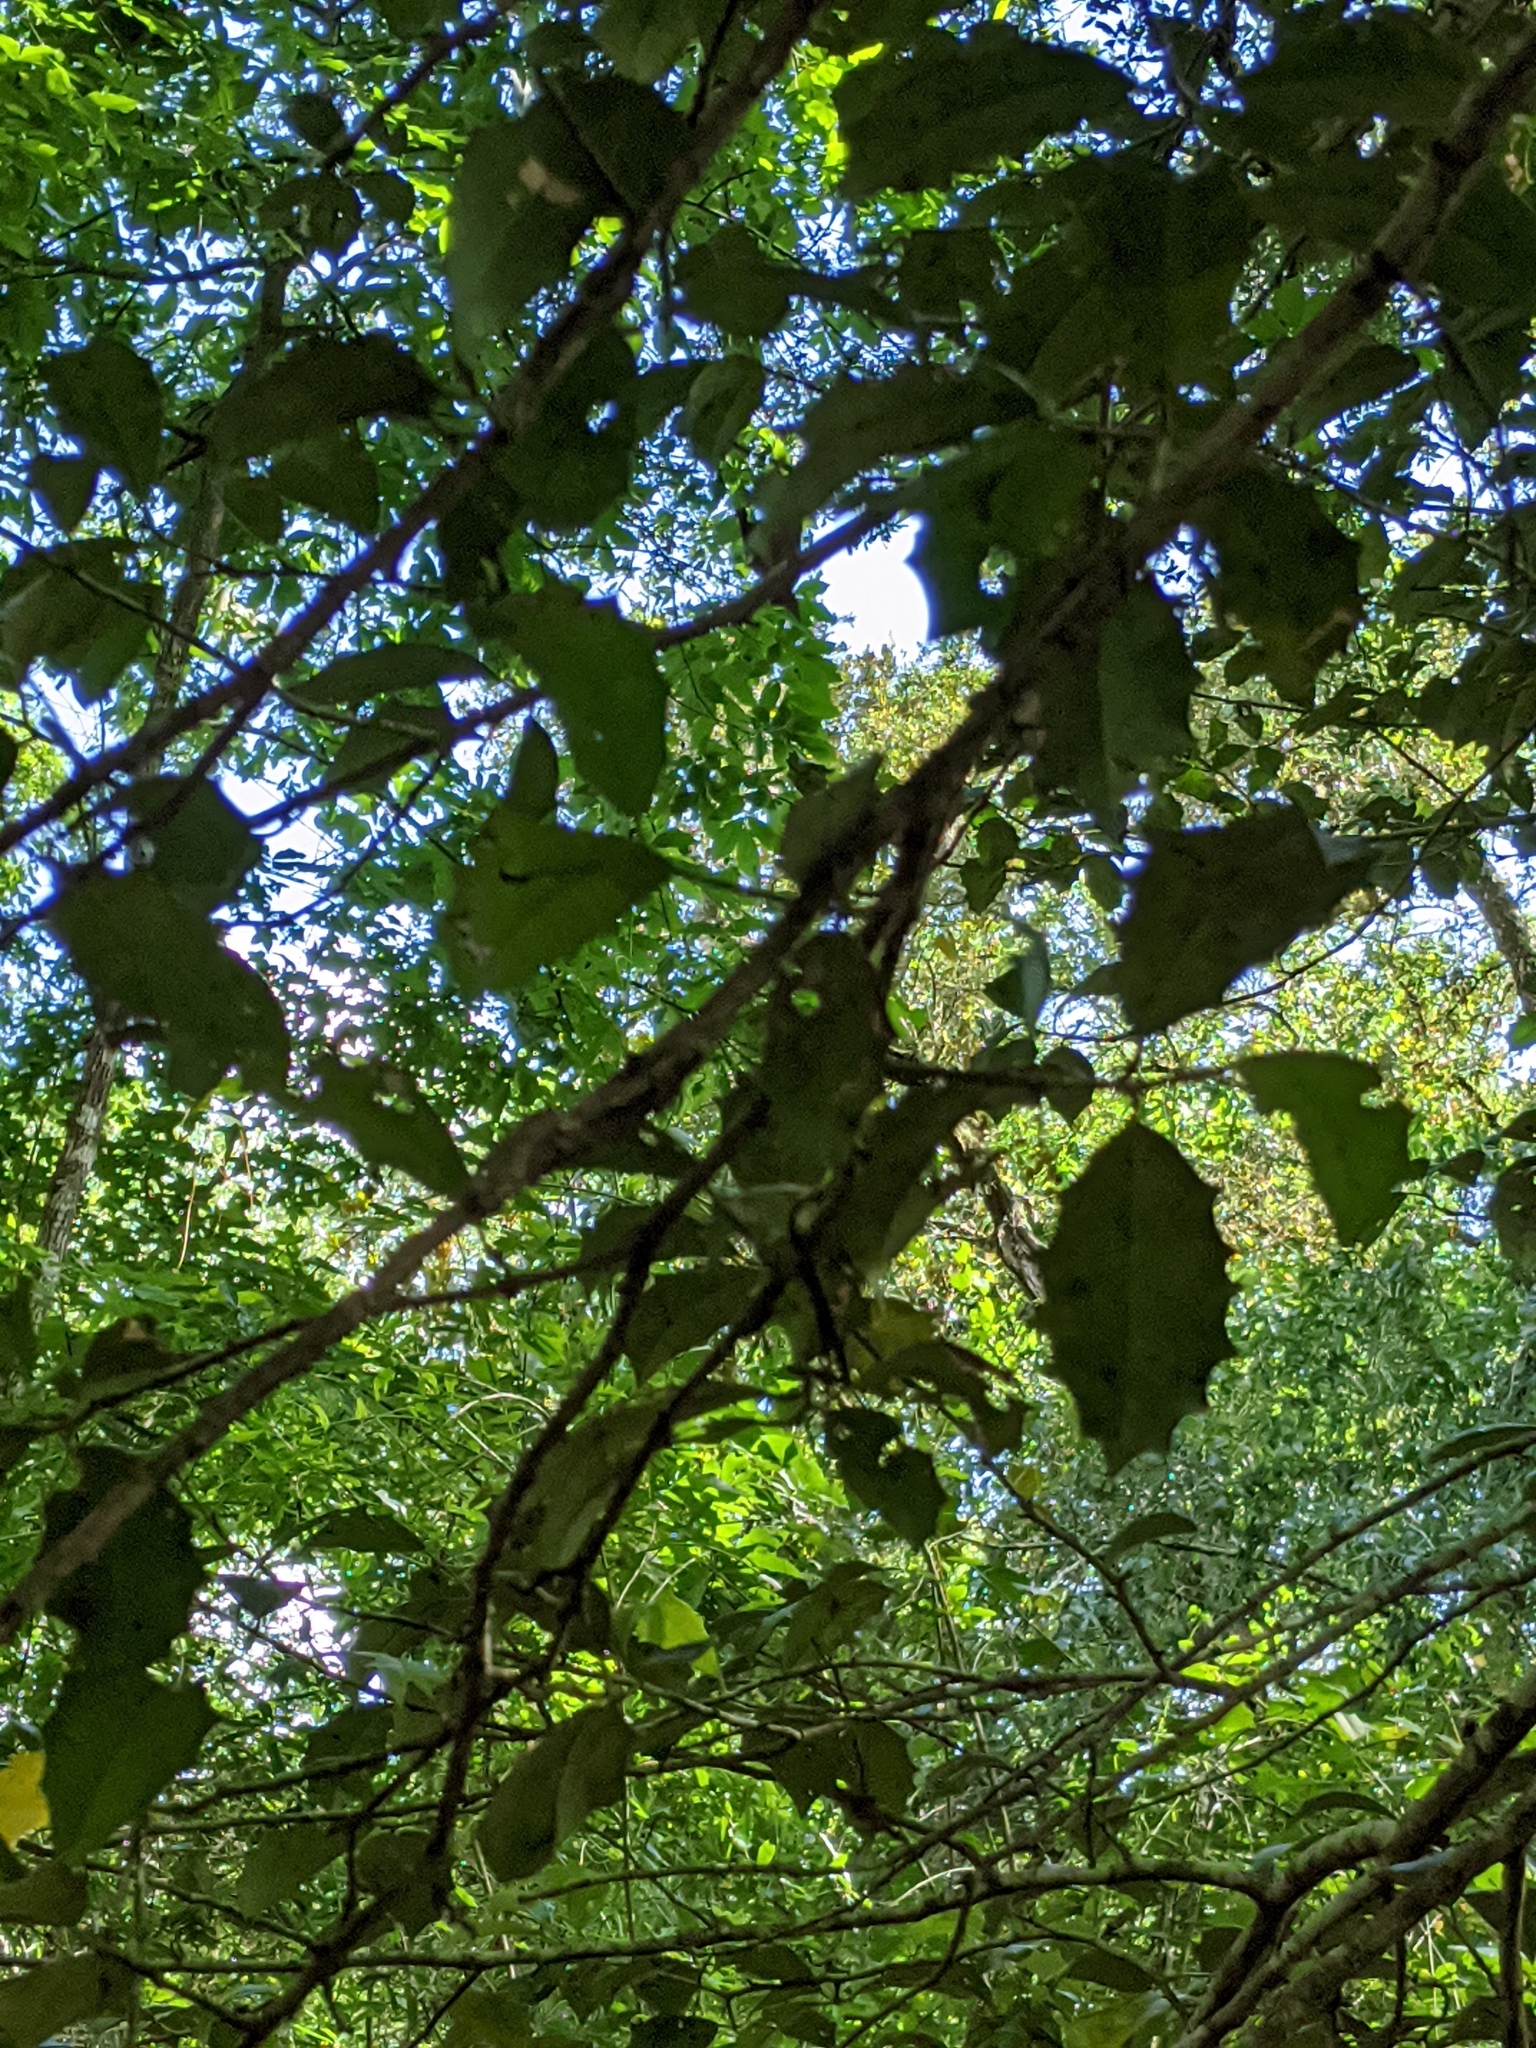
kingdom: Plantae
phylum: Tracheophyta
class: Magnoliopsida
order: Aquifoliales
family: Aquifoliaceae
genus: Ilex
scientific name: Ilex opaca
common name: American holly
